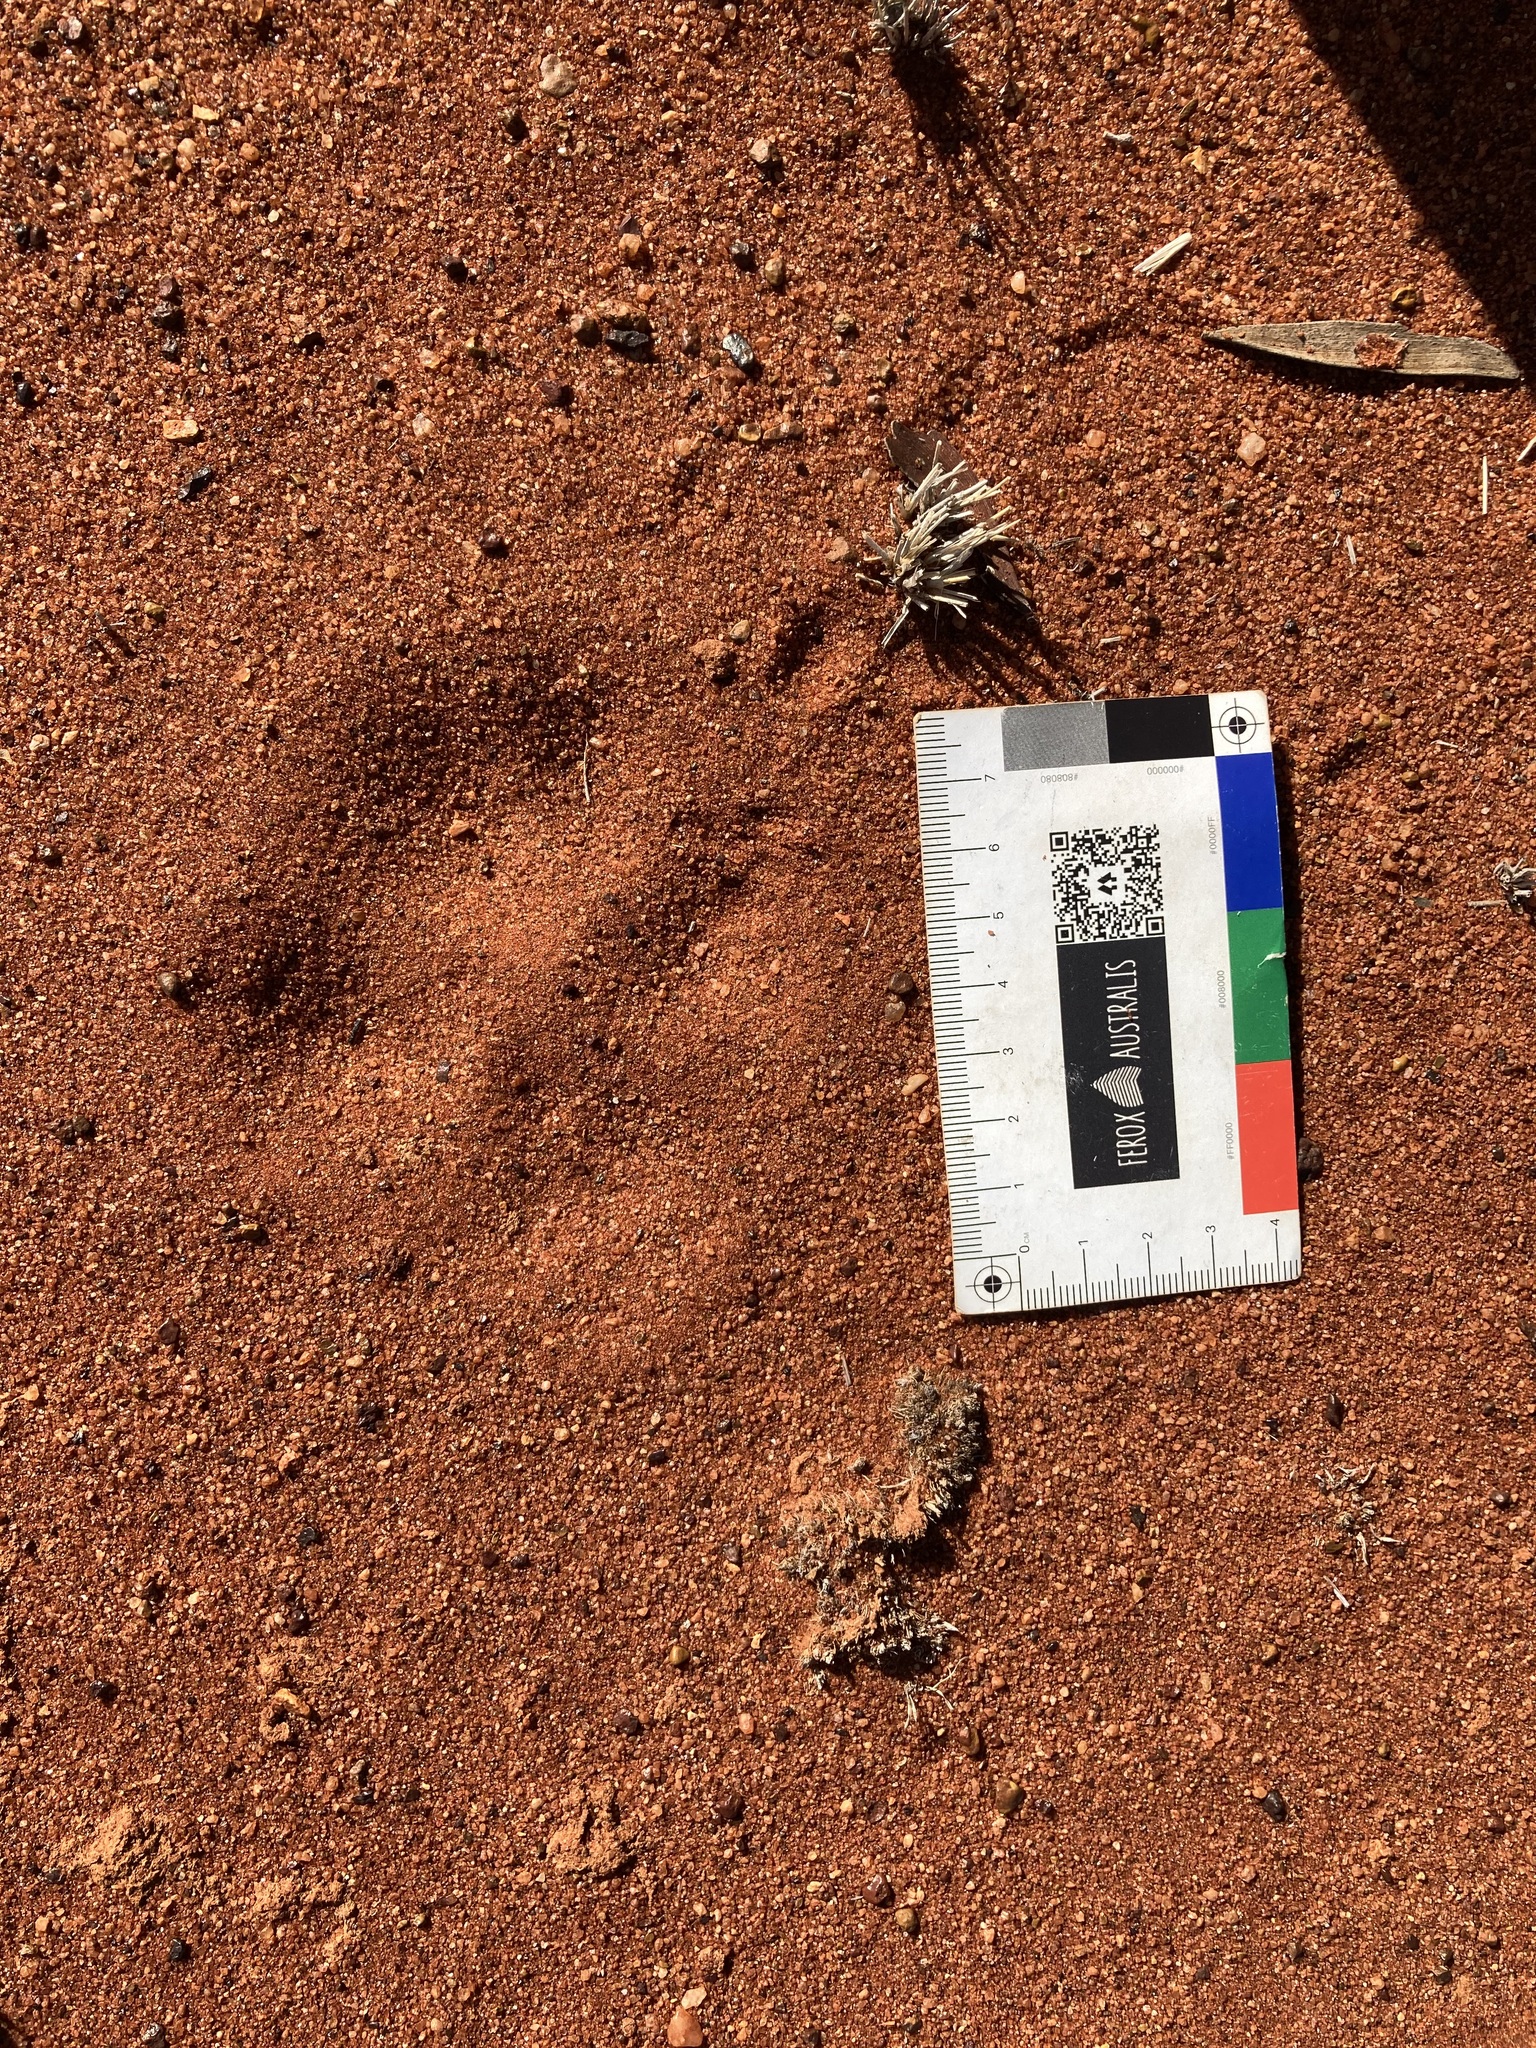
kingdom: Animalia
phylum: Chordata
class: Mammalia
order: Carnivora
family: Canidae
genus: Canis
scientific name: Canis lupus
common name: Gray wolf
